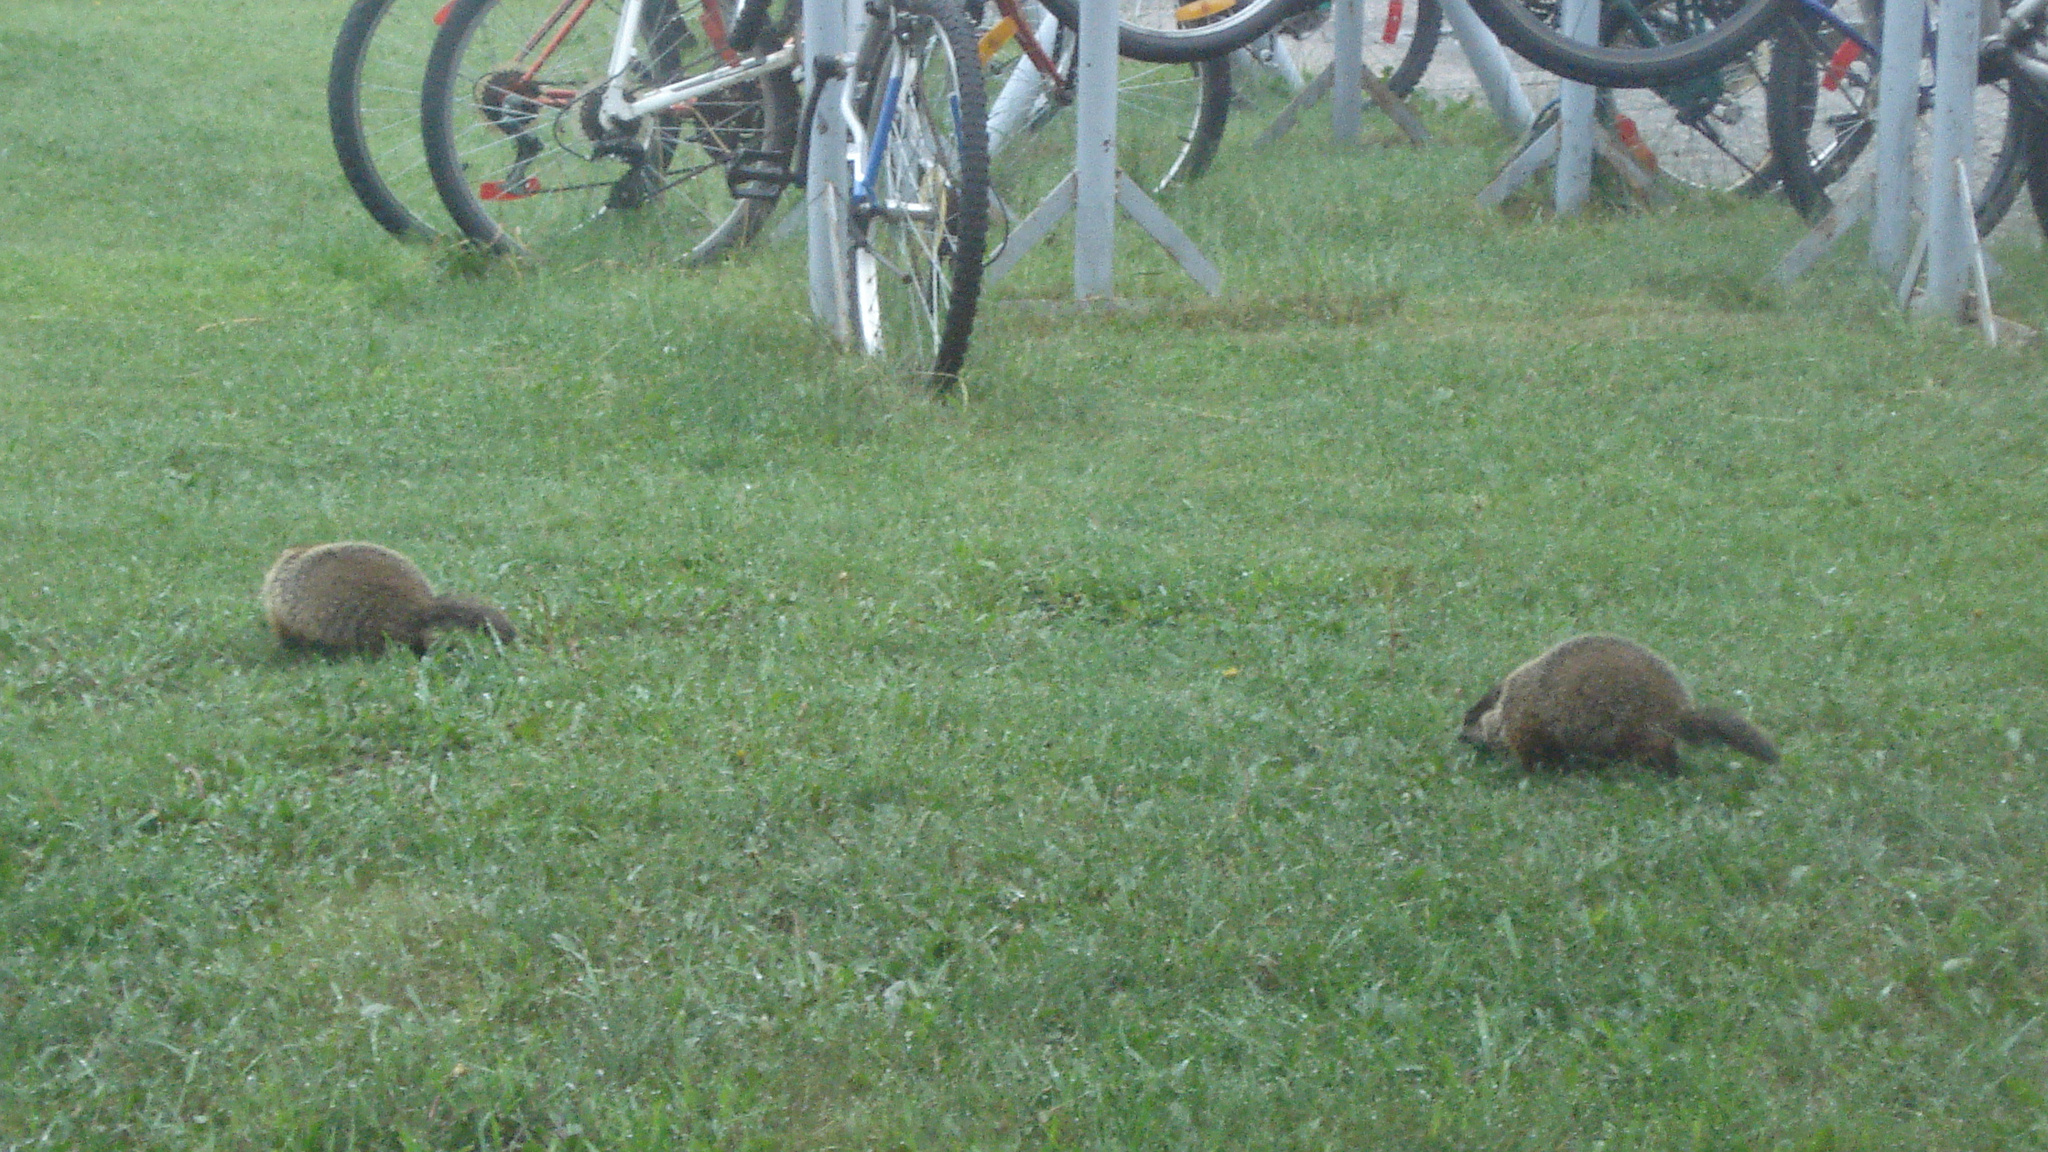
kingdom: Animalia
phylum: Chordata
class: Mammalia
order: Rodentia
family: Sciuridae
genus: Marmota
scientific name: Marmota monax
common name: Groundhog
